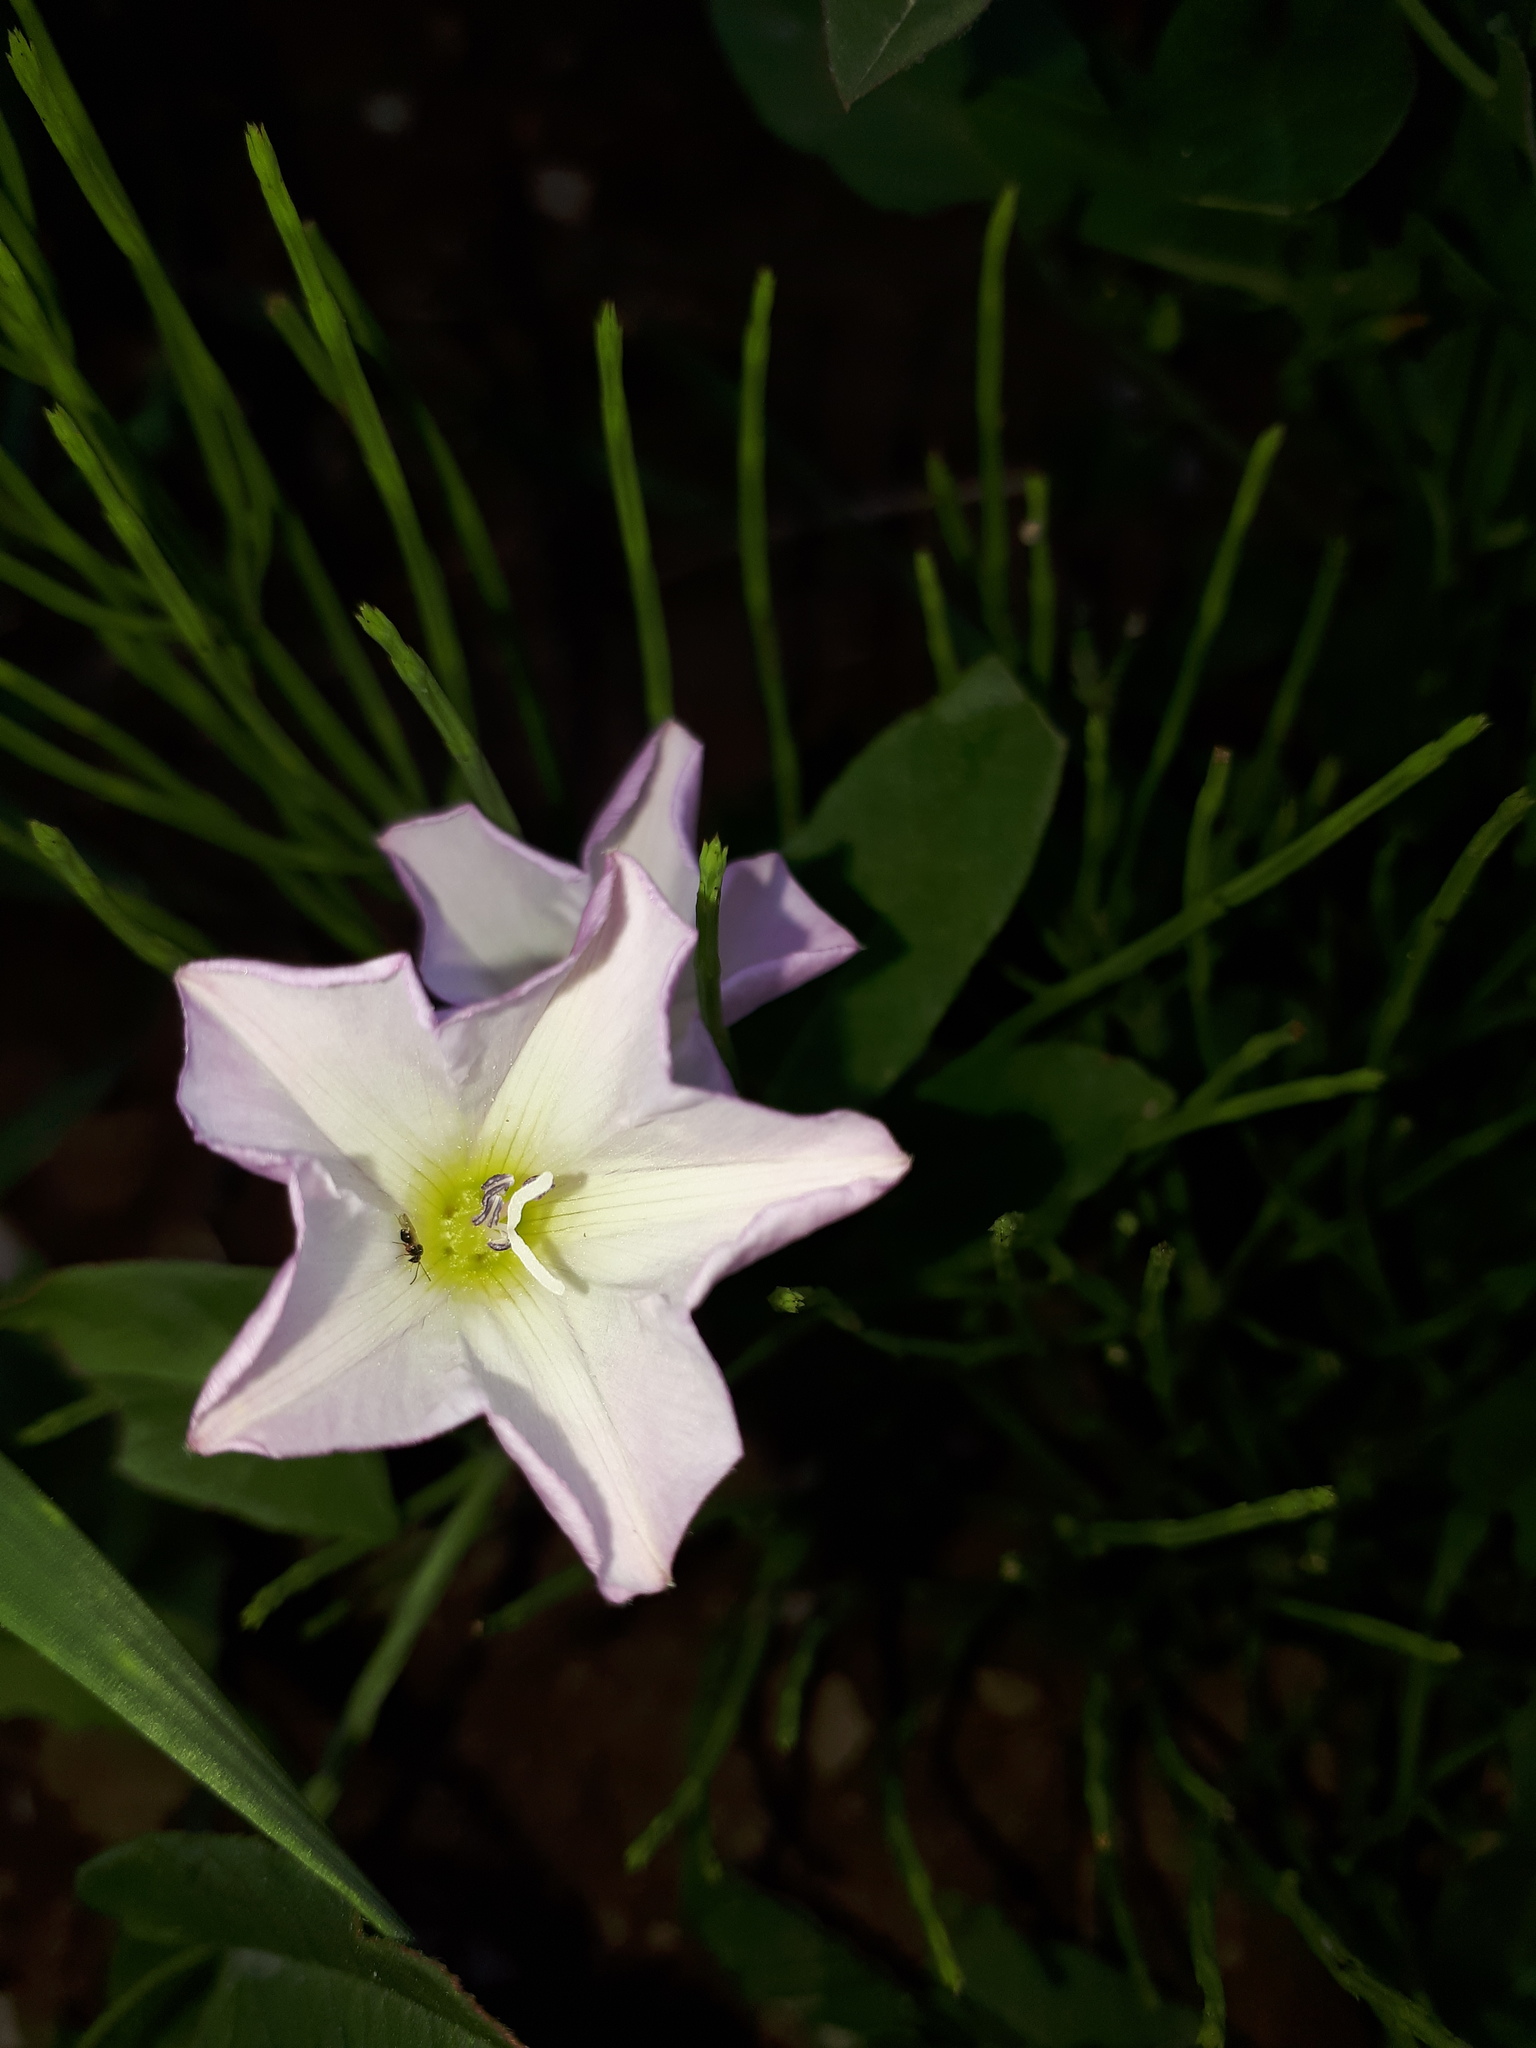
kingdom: Plantae
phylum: Tracheophyta
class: Magnoliopsida
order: Solanales
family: Convolvulaceae
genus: Convolvulus
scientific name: Convolvulus arvensis
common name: Field bindweed
